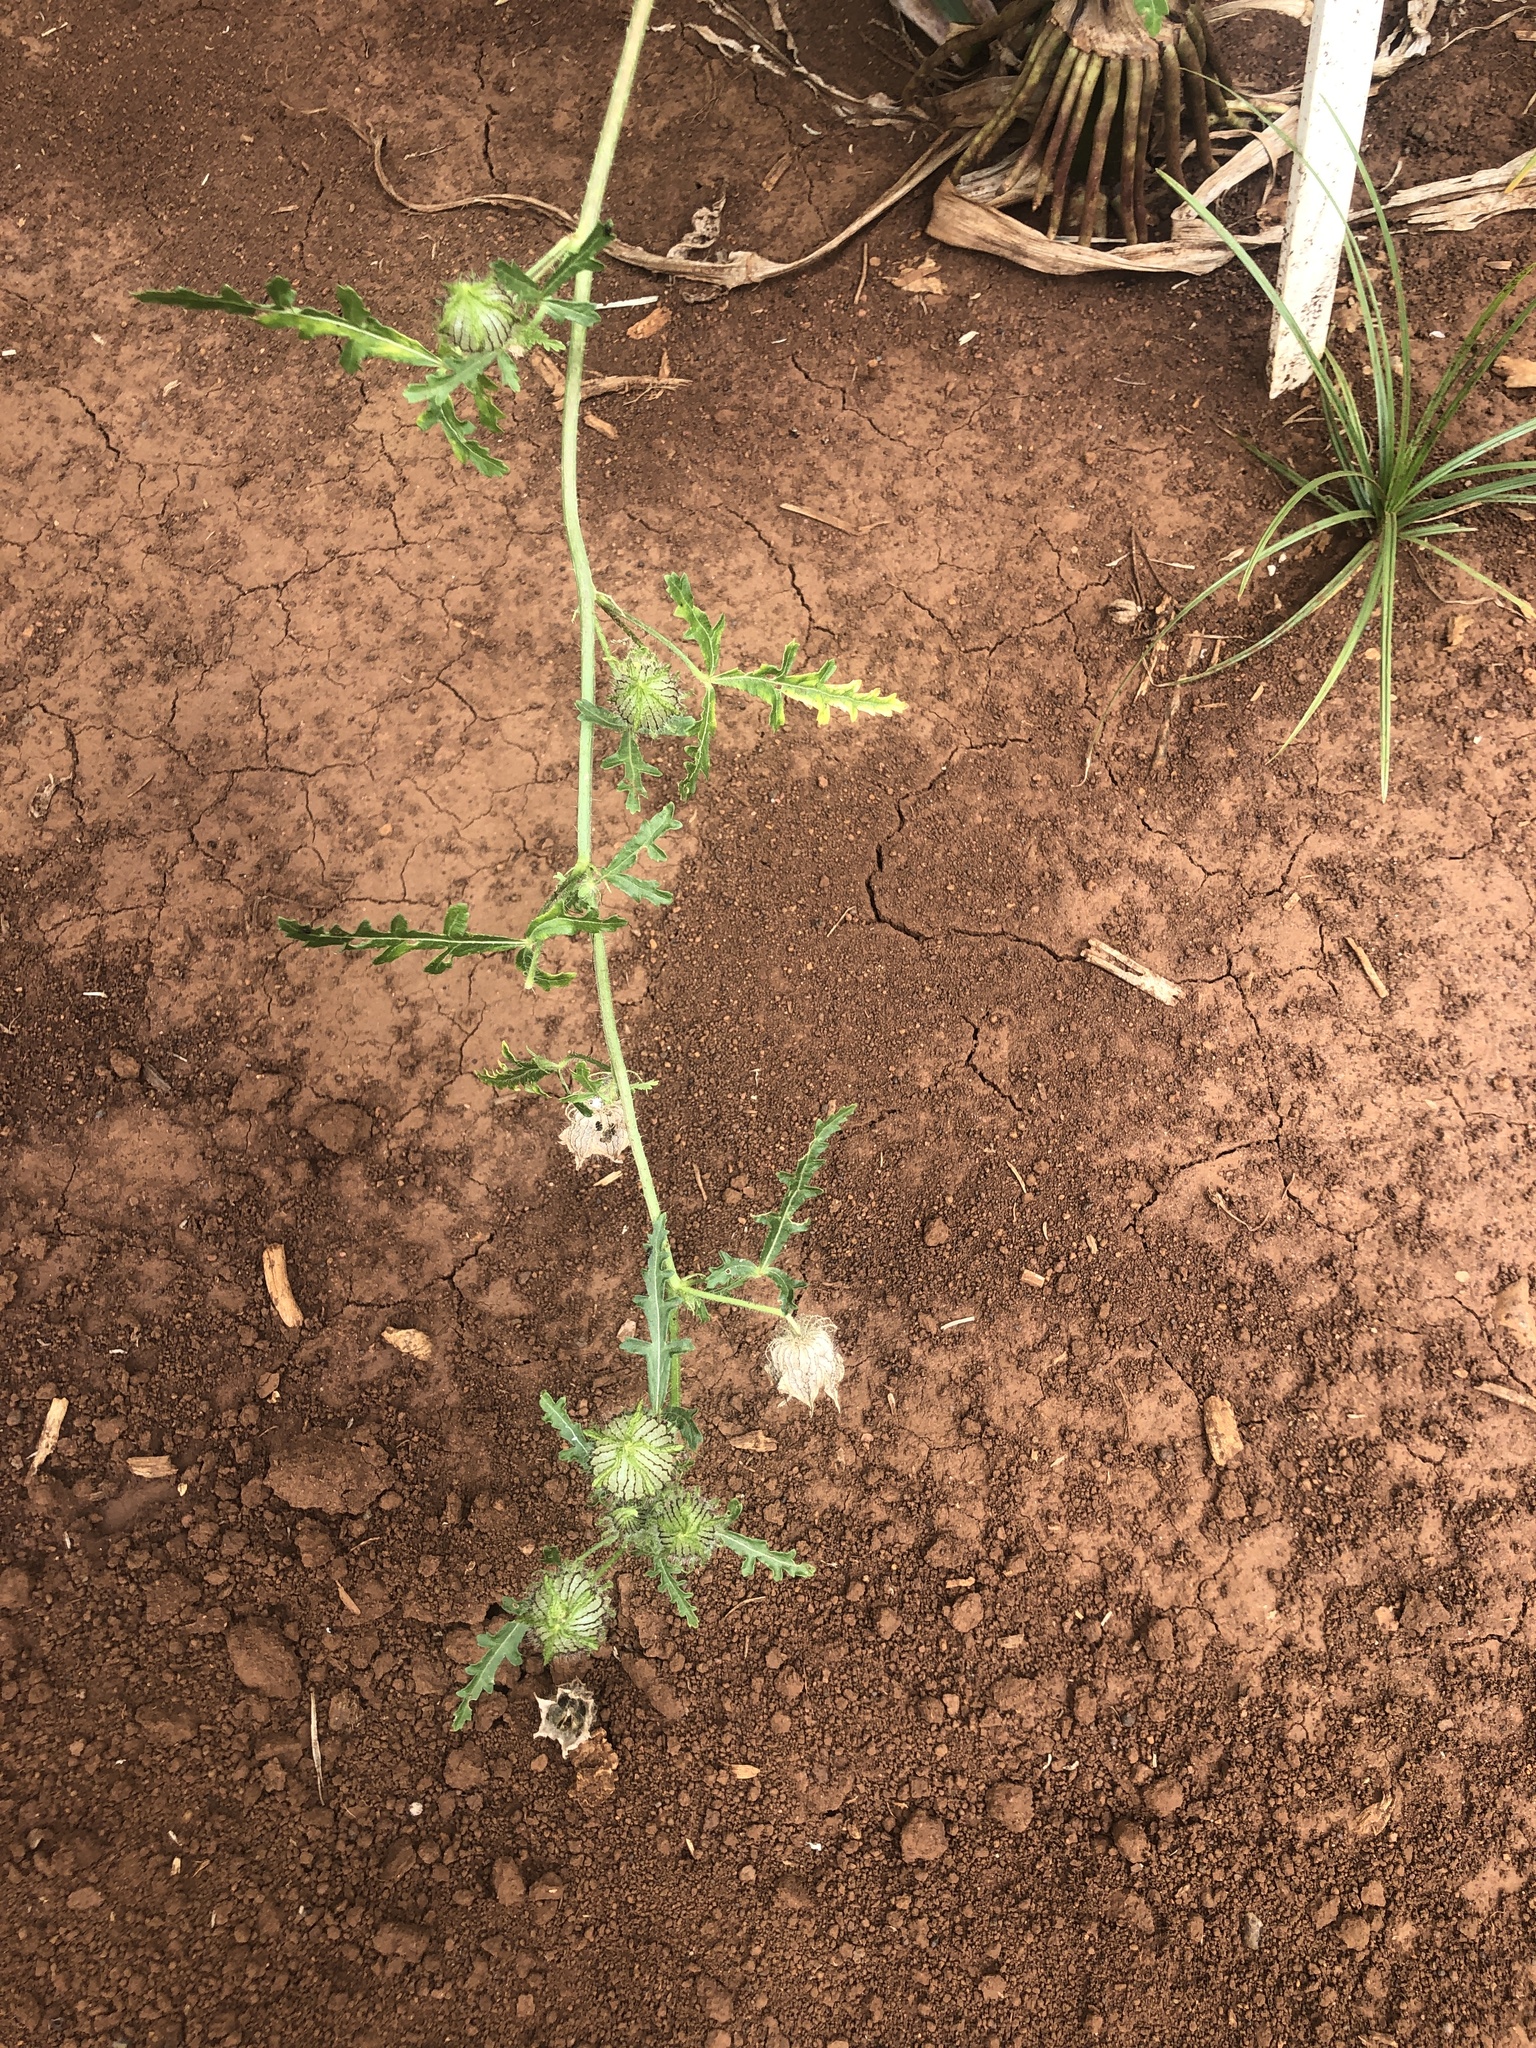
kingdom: Plantae
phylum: Tracheophyta
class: Magnoliopsida
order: Malvales
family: Malvaceae
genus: Hibiscus
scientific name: Hibiscus trionum
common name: Bladder ketmia
